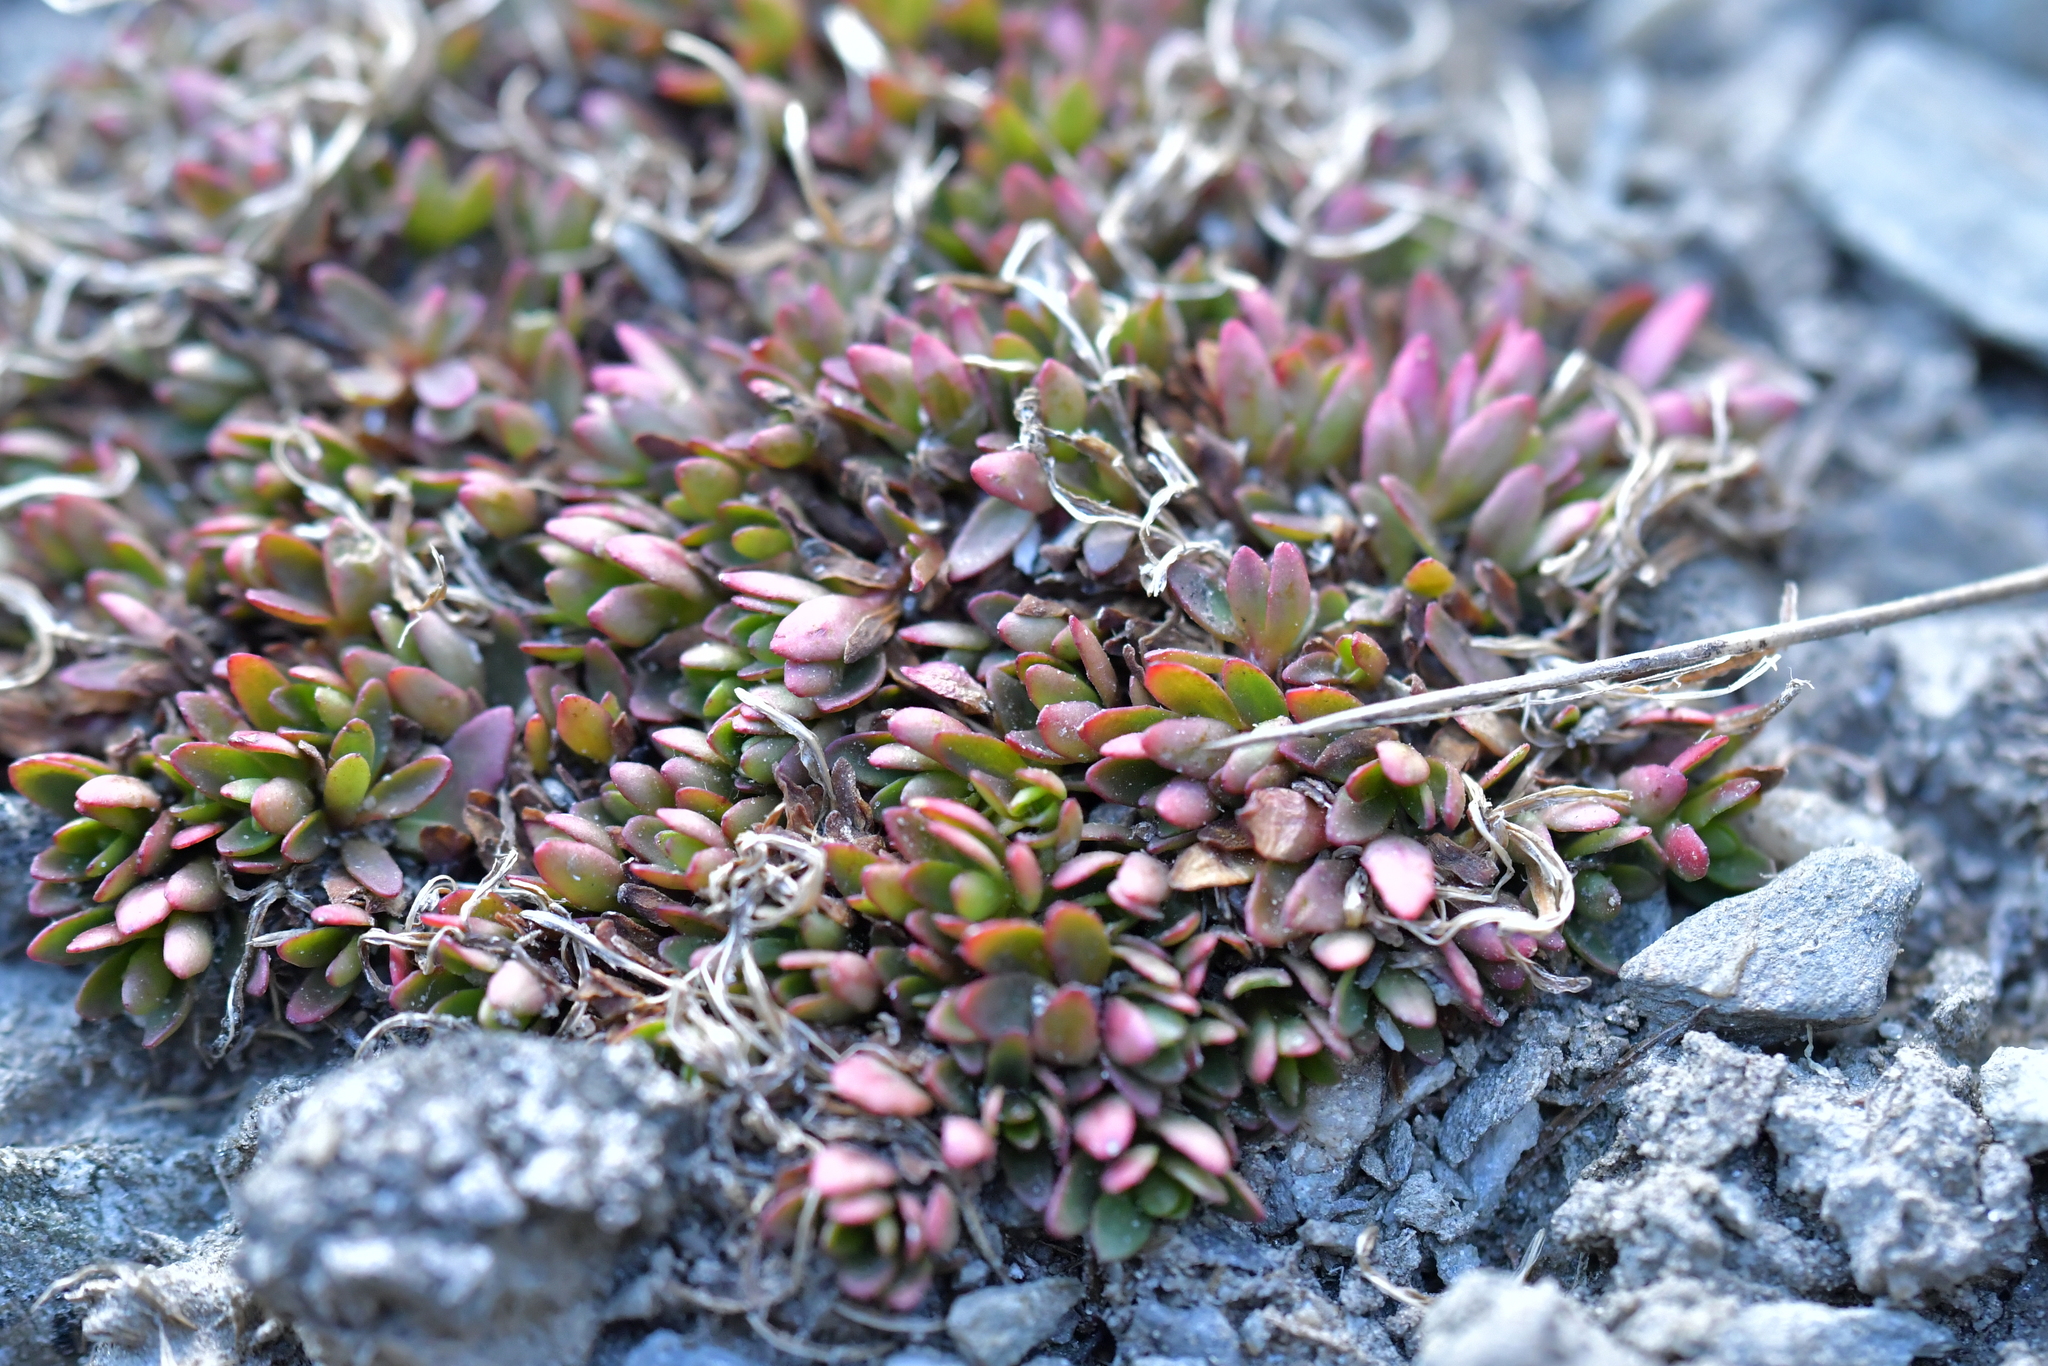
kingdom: Plantae
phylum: Tracheophyta
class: Magnoliopsida
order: Myrtales
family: Onagraceae
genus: Epilobium
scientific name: Epilobium tasmanicum
